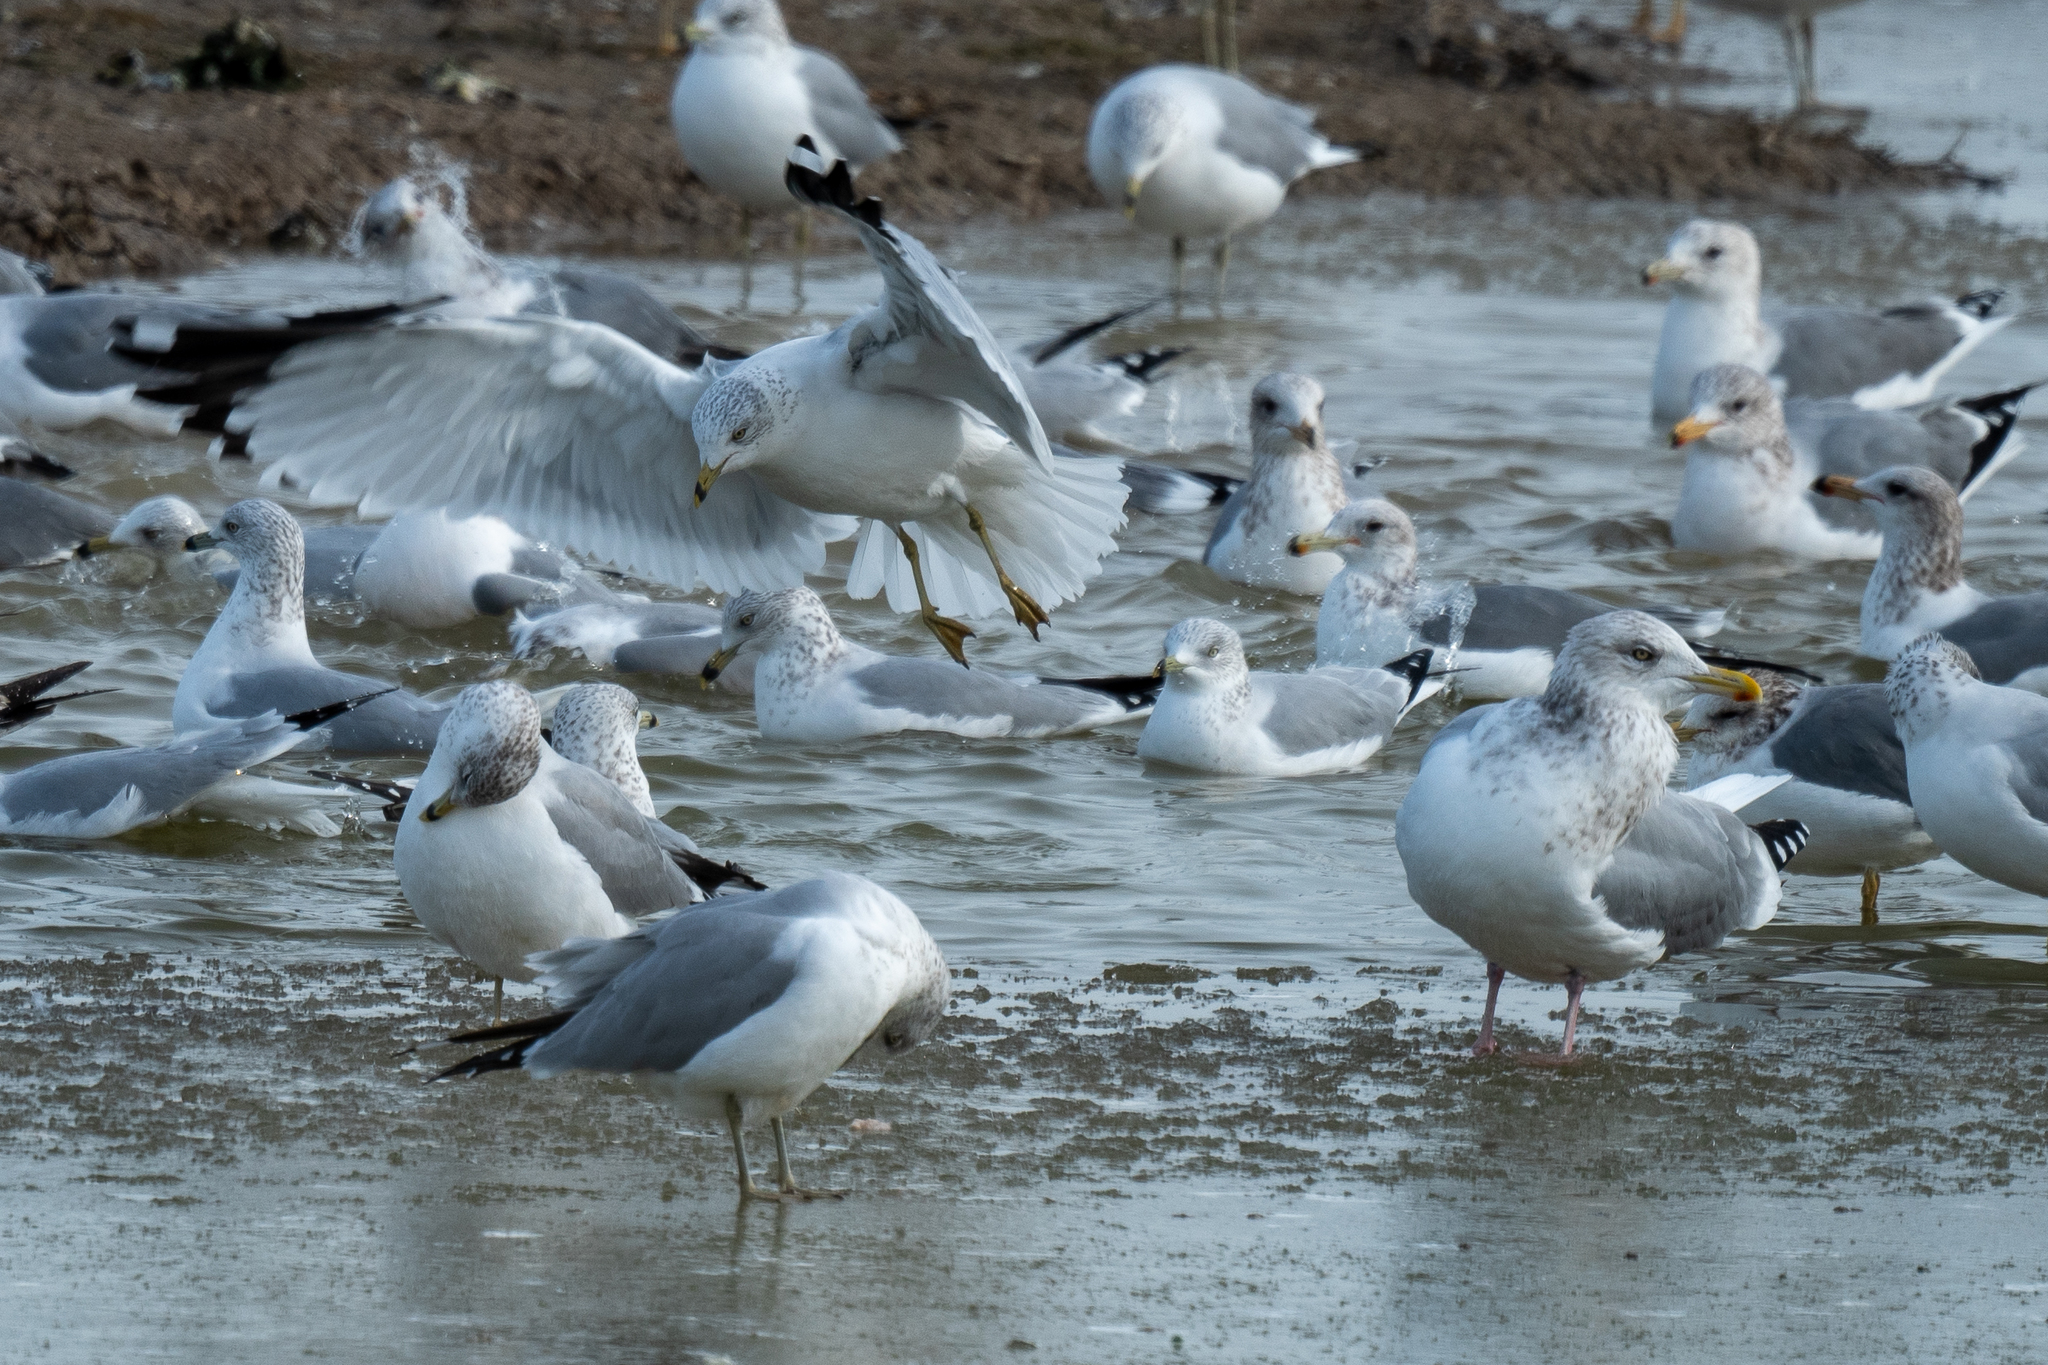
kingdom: Animalia
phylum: Chordata
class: Aves
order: Charadriiformes
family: Laridae
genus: Larus
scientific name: Larus delawarensis
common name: Ring-billed gull
